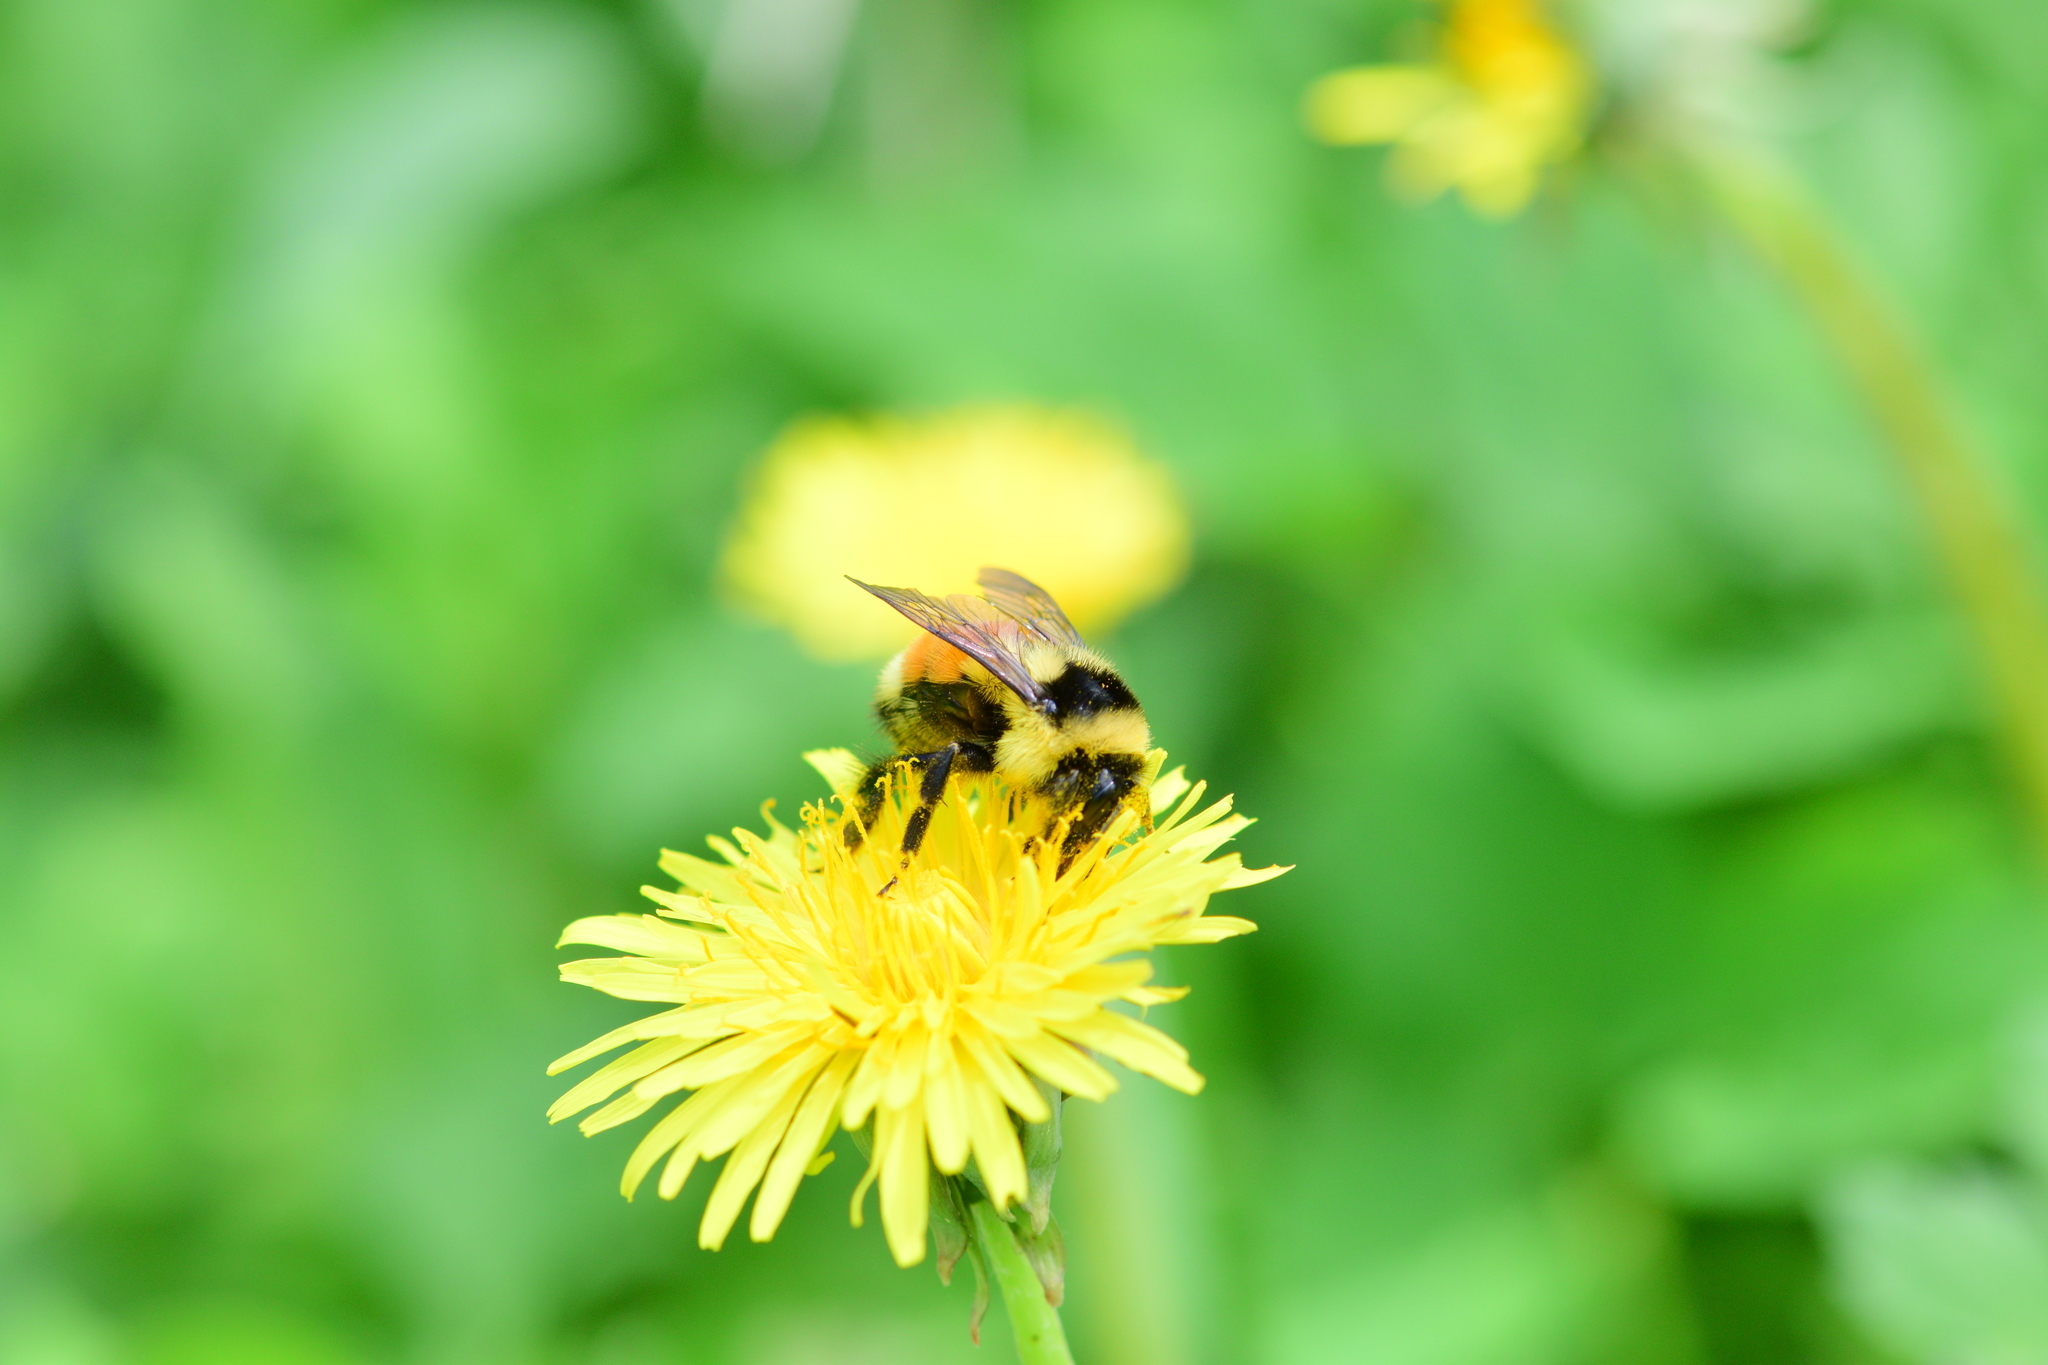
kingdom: Animalia
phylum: Arthropoda
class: Insecta
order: Hymenoptera
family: Apidae
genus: Bombus
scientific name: Bombus ternarius
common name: Tri-colored bumble bee
